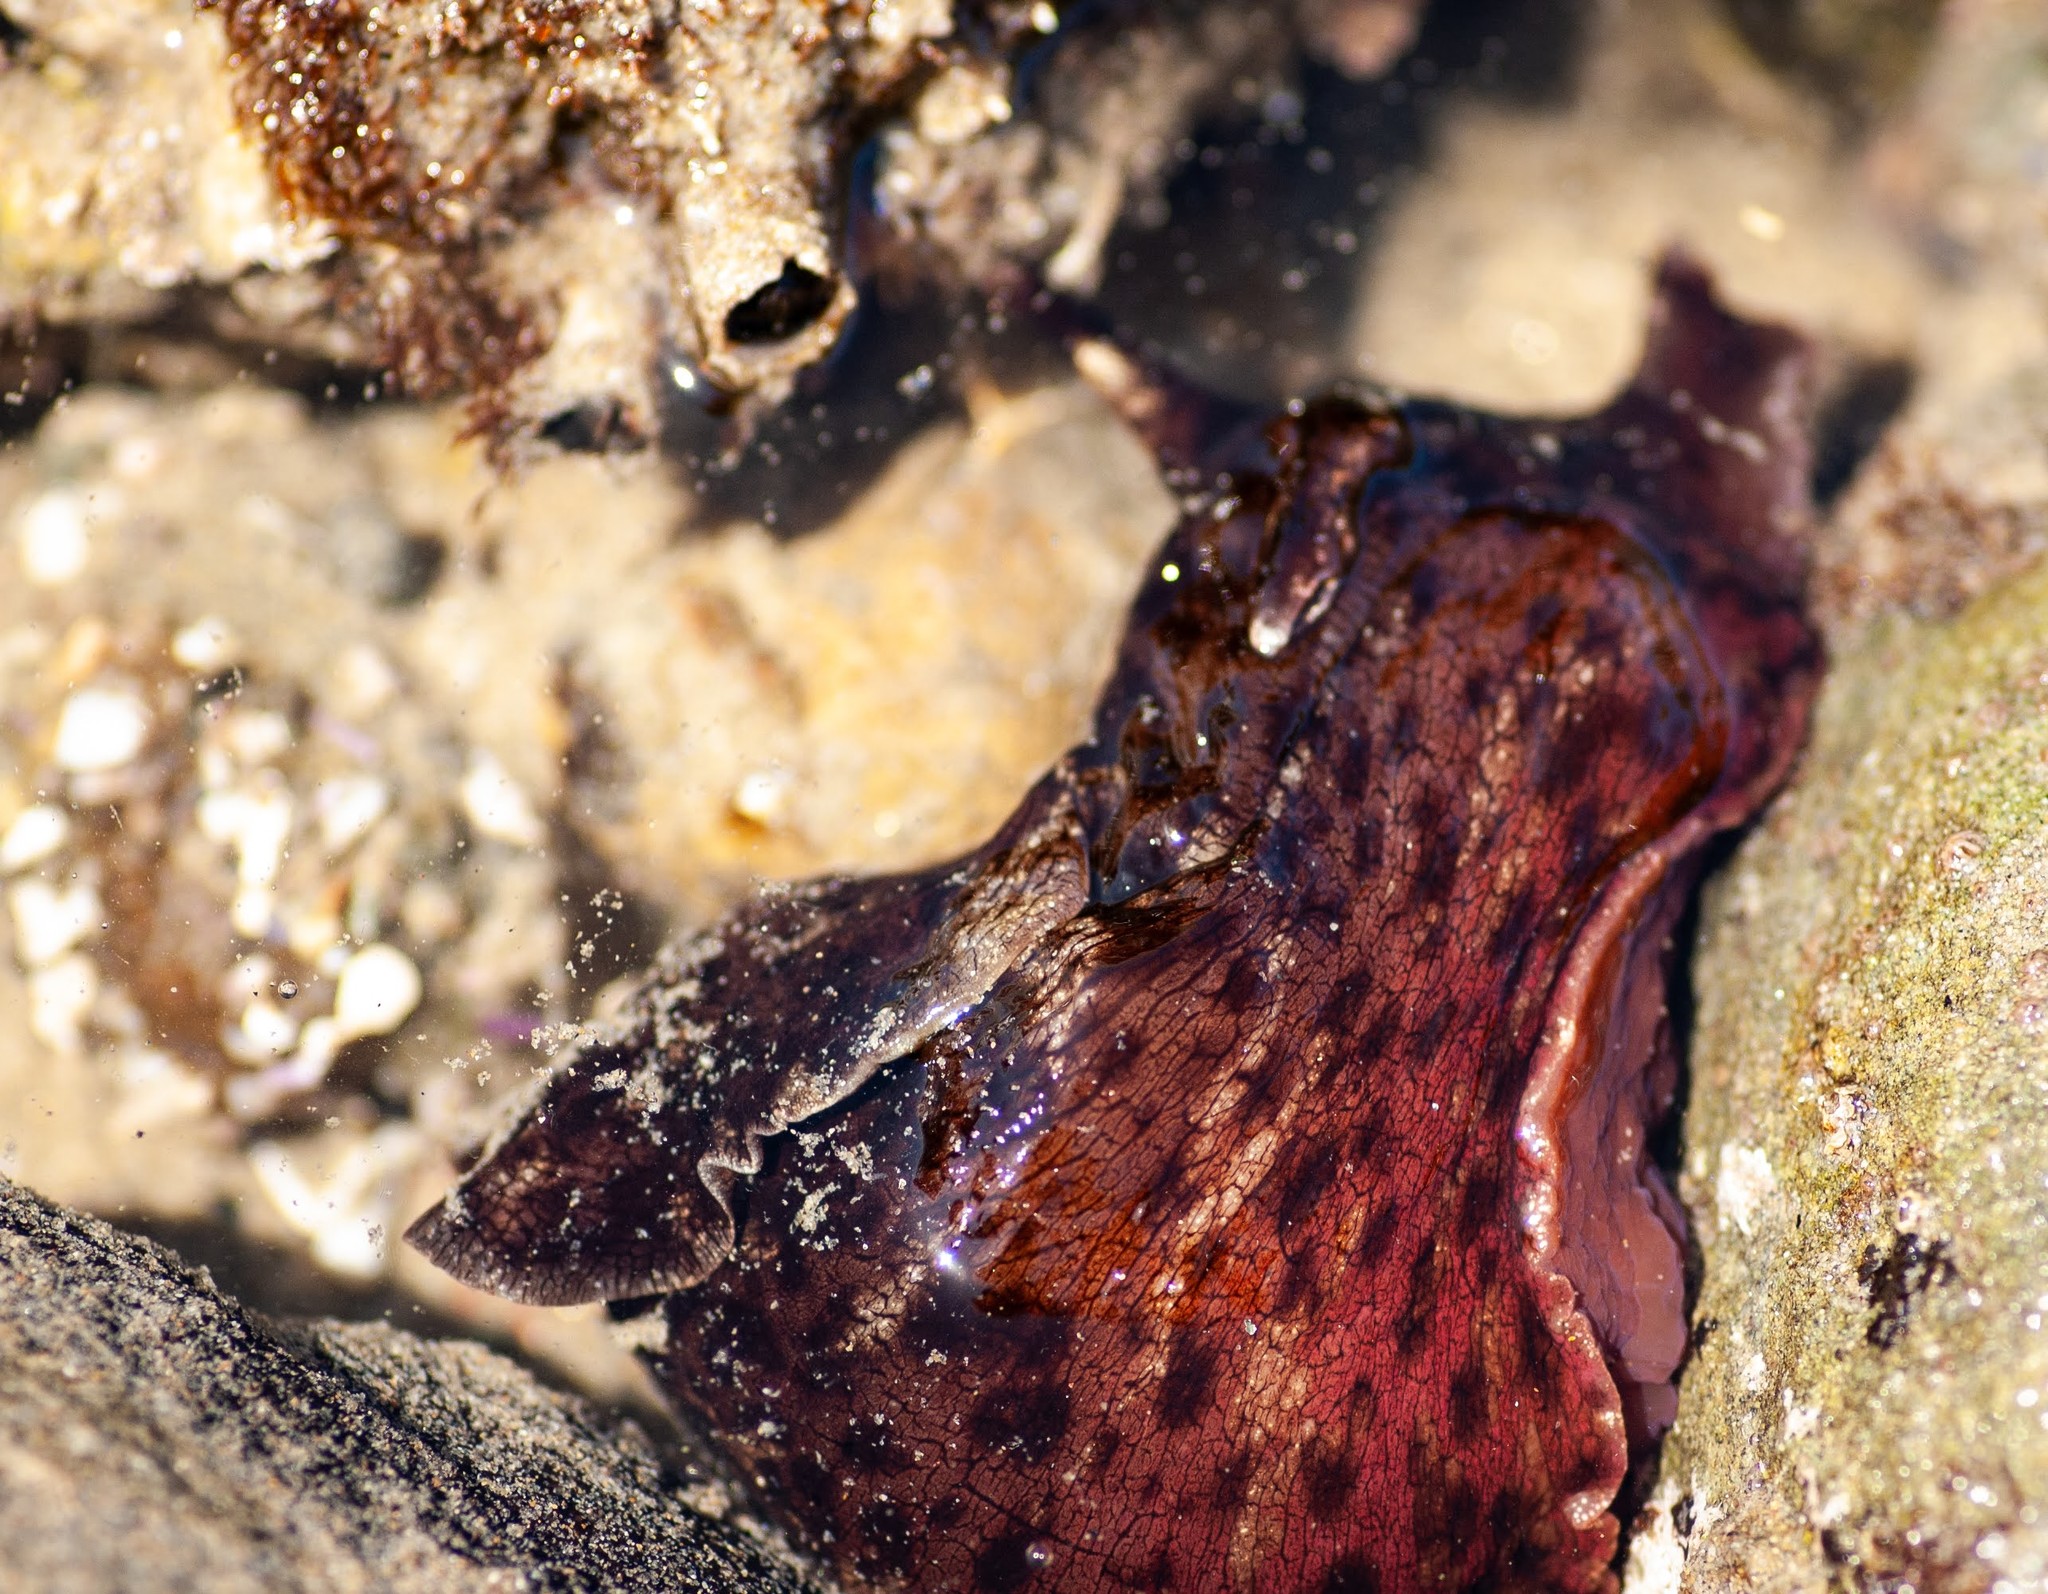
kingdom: Animalia
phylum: Mollusca
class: Gastropoda
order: Aplysiida
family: Aplysiidae
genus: Aplysia
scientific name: Aplysia californica
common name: California seahare
